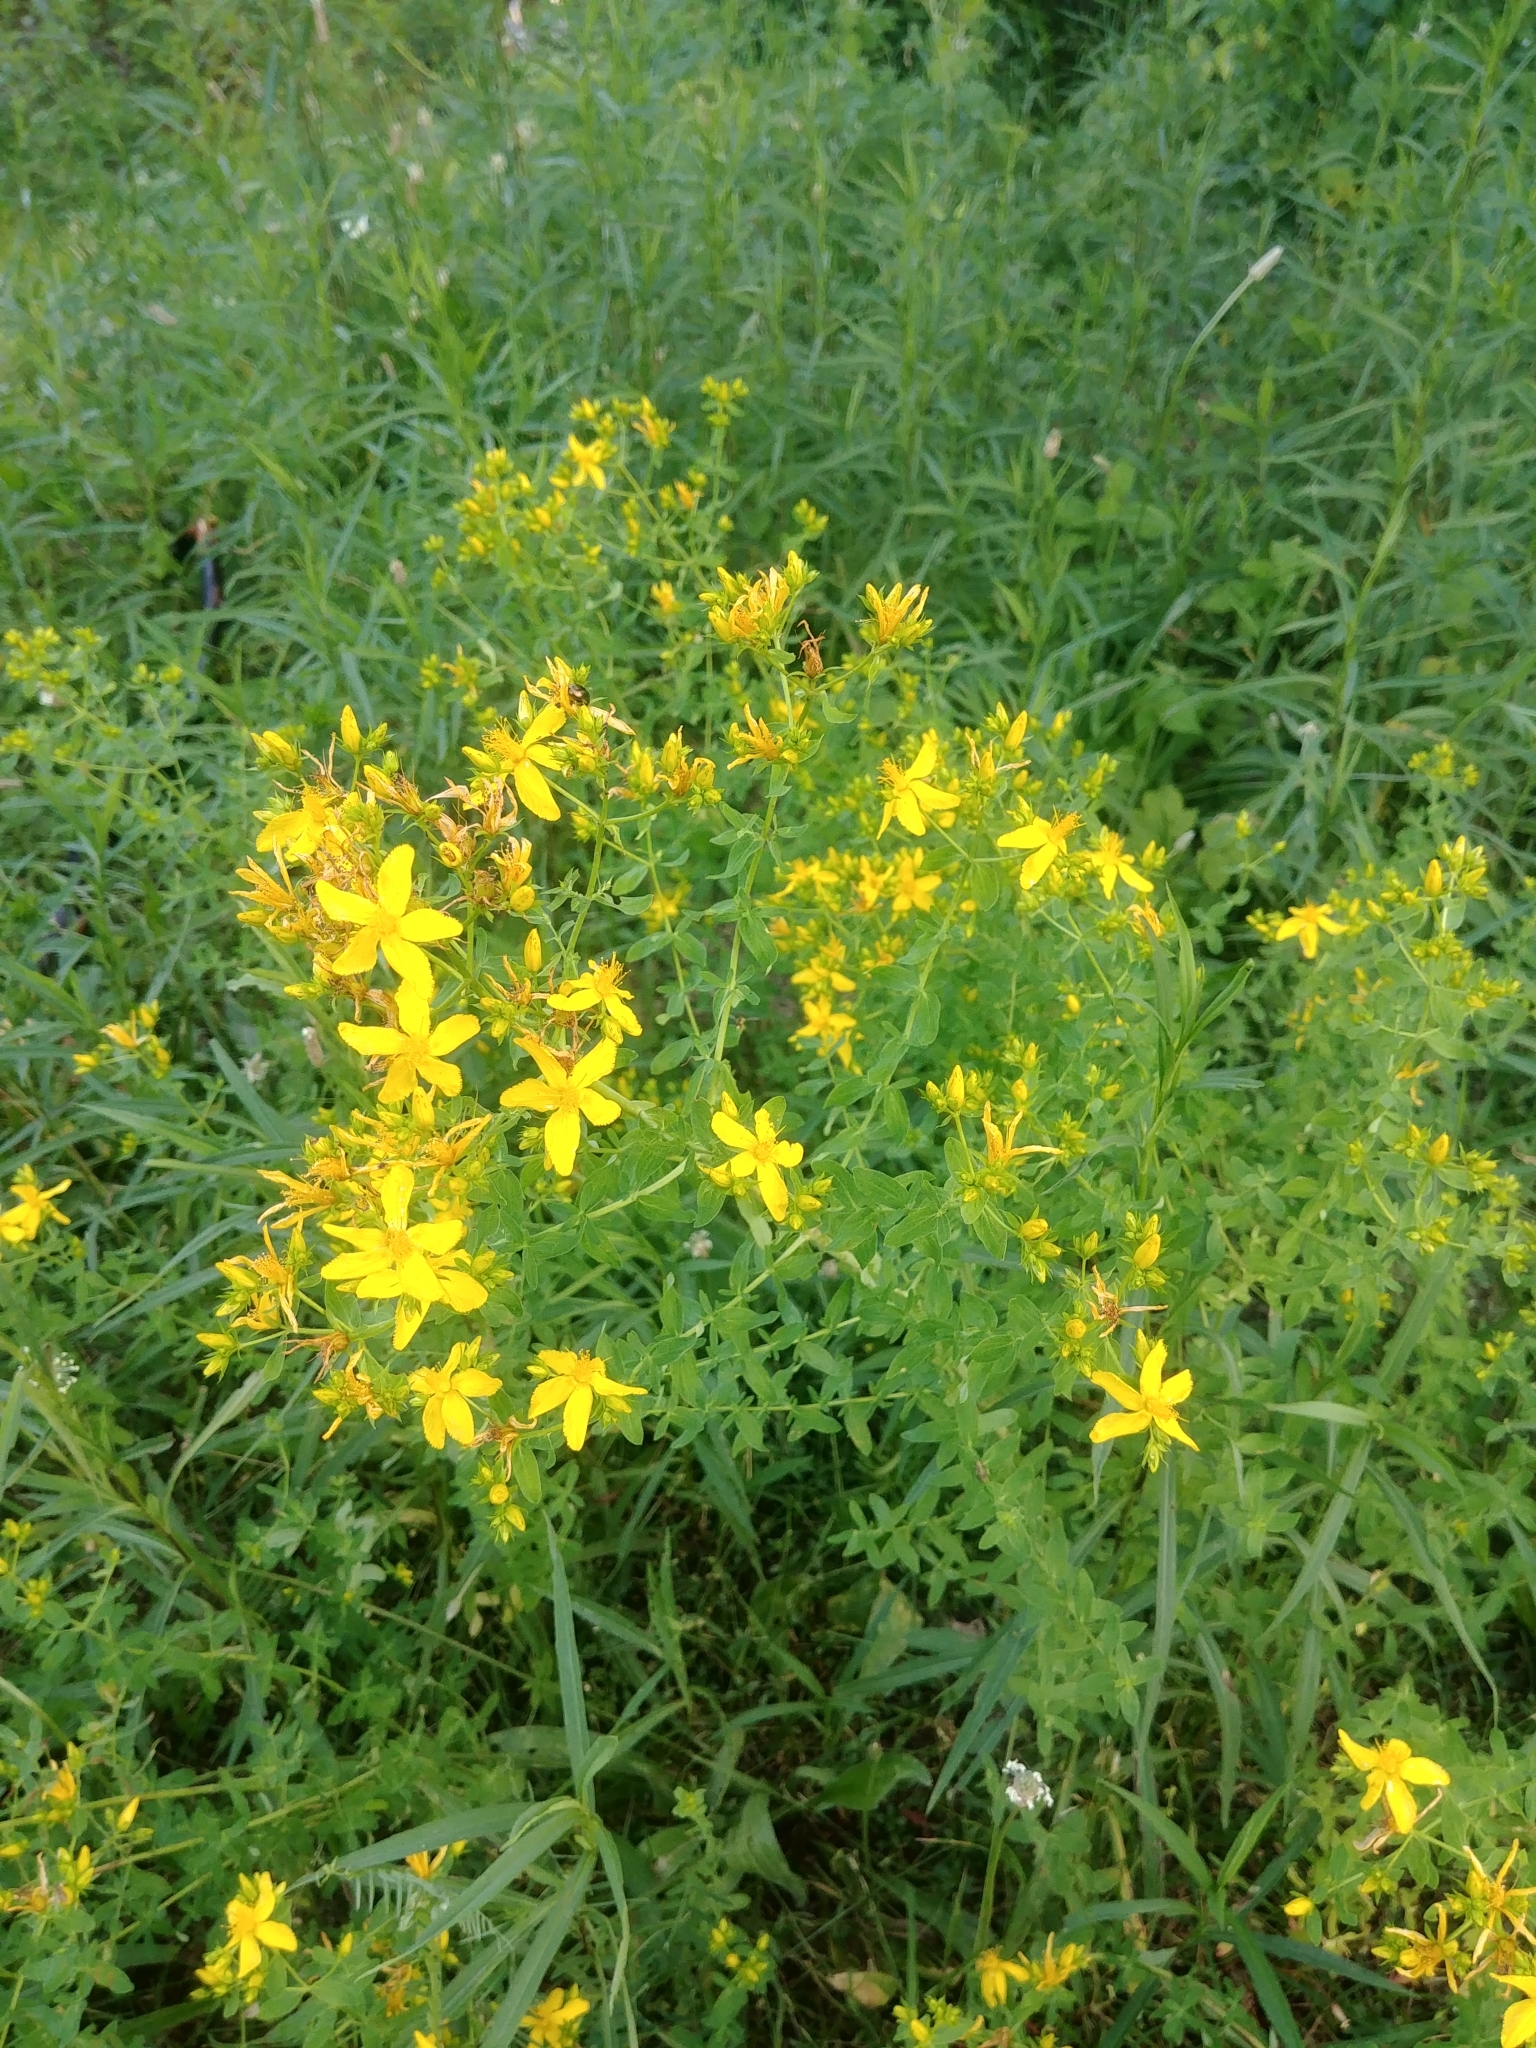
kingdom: Plantae
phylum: Tracheophyta
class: Magnoliopsida
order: Malpighiales
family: Hypericaceae
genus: Hypericum
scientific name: Hypericum perforatum
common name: Common st. johnswort
